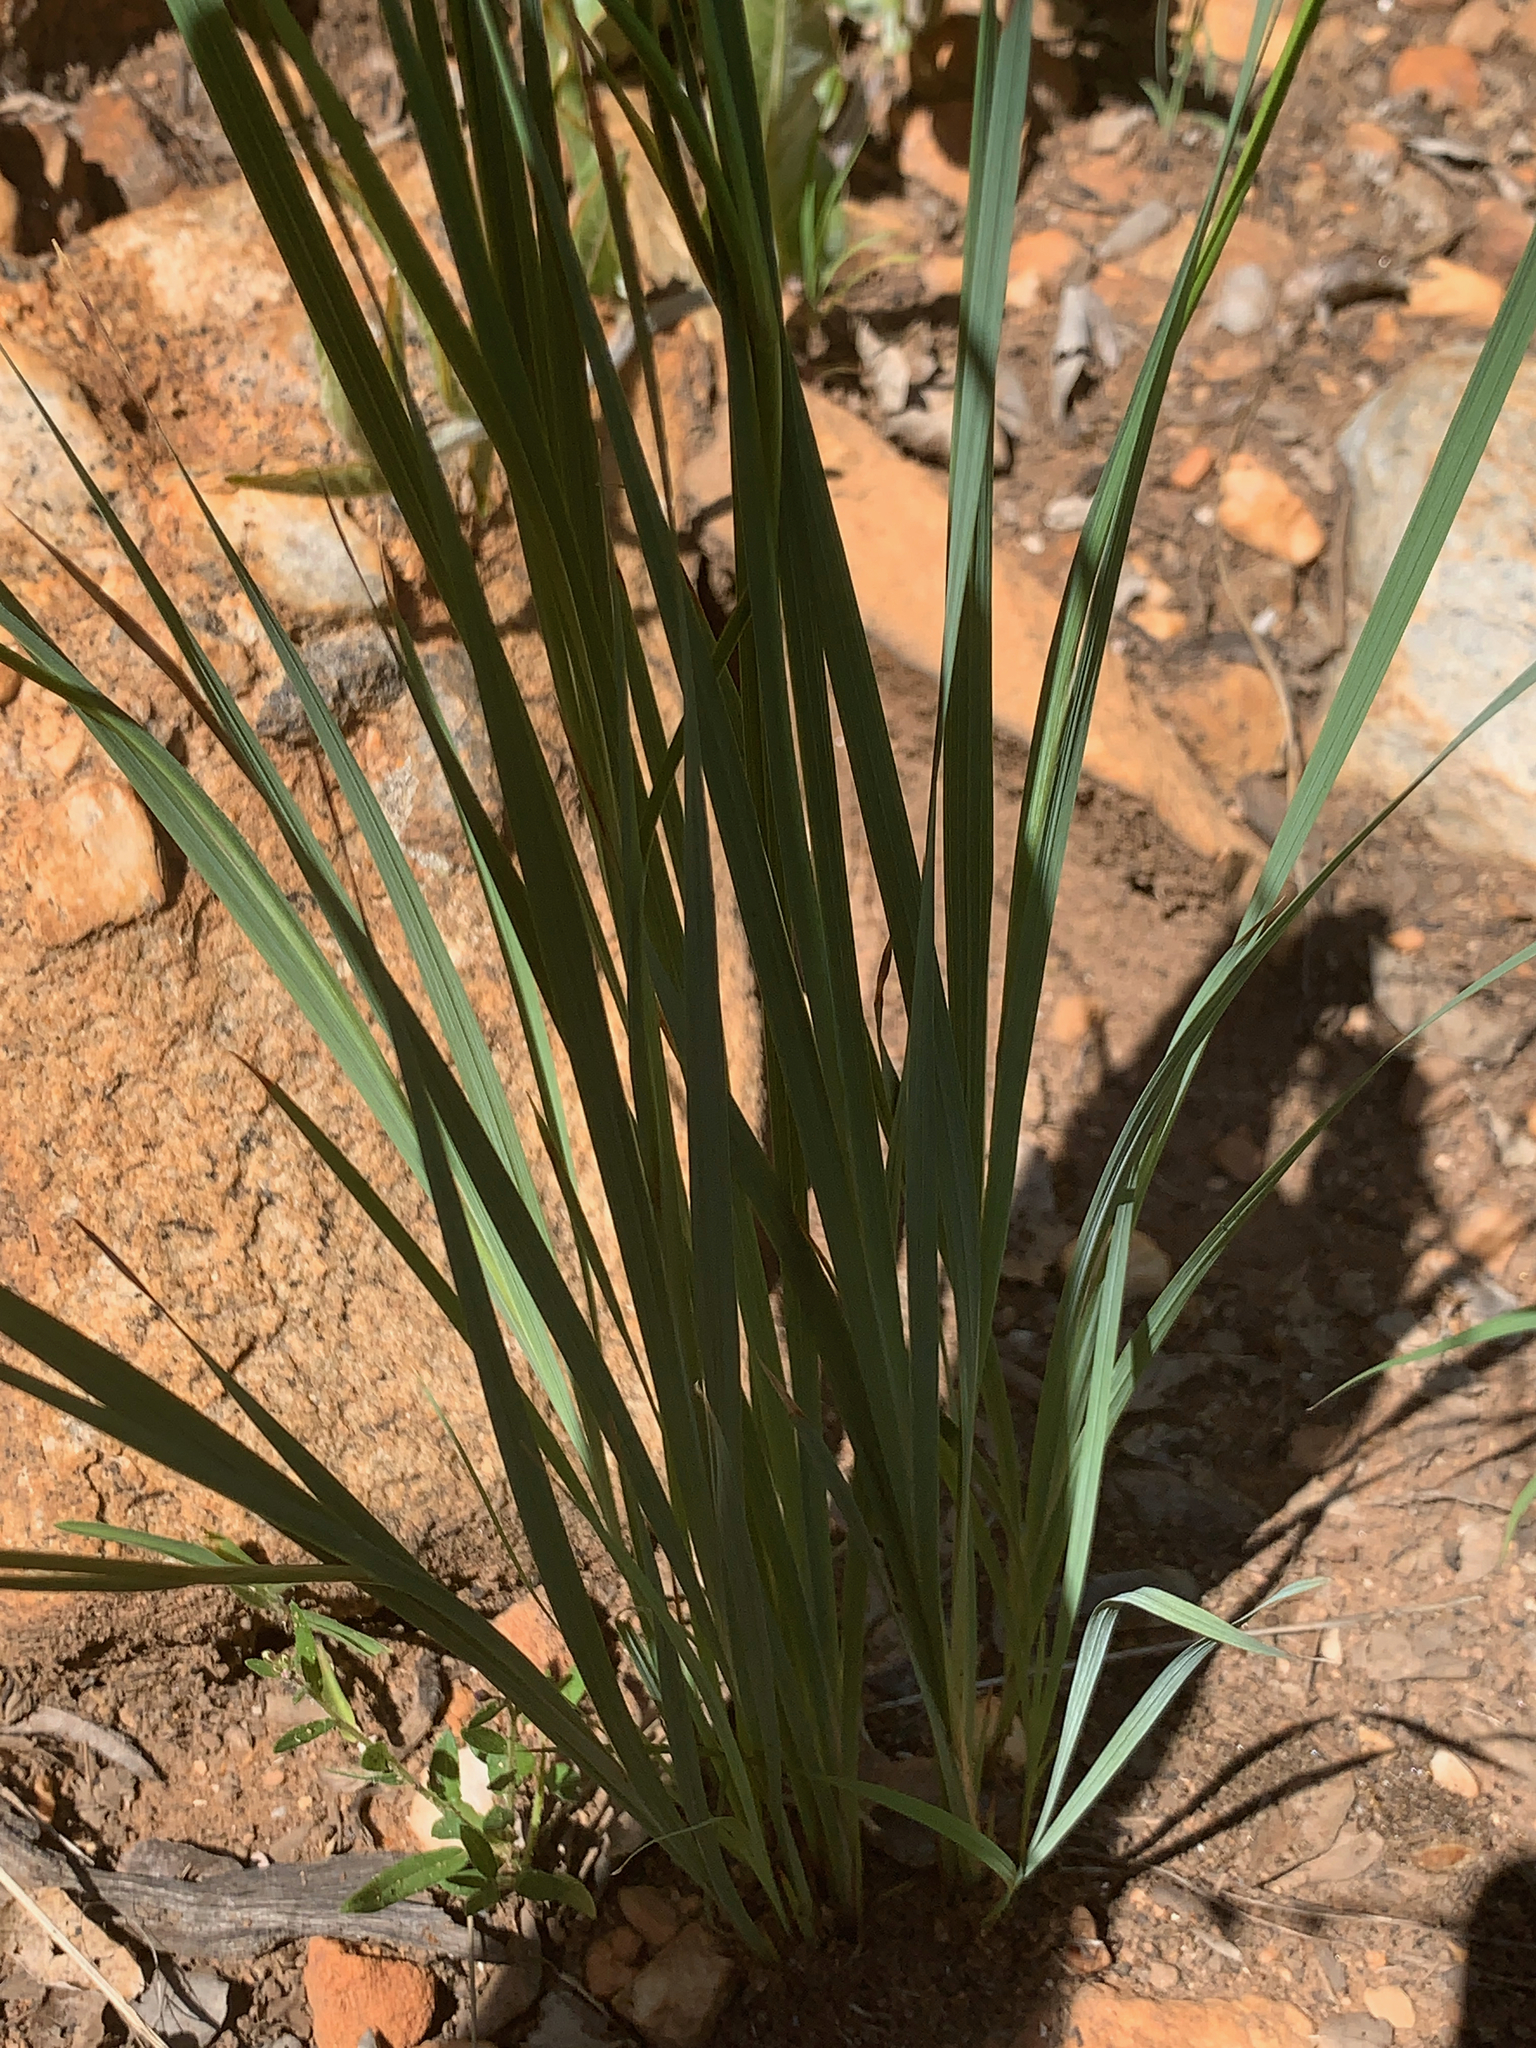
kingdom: Plantae
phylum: Tracheophyta
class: Liliopsida
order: Asparagales
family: Iridaceae
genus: Tritonia
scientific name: Tritonia nelsonii
